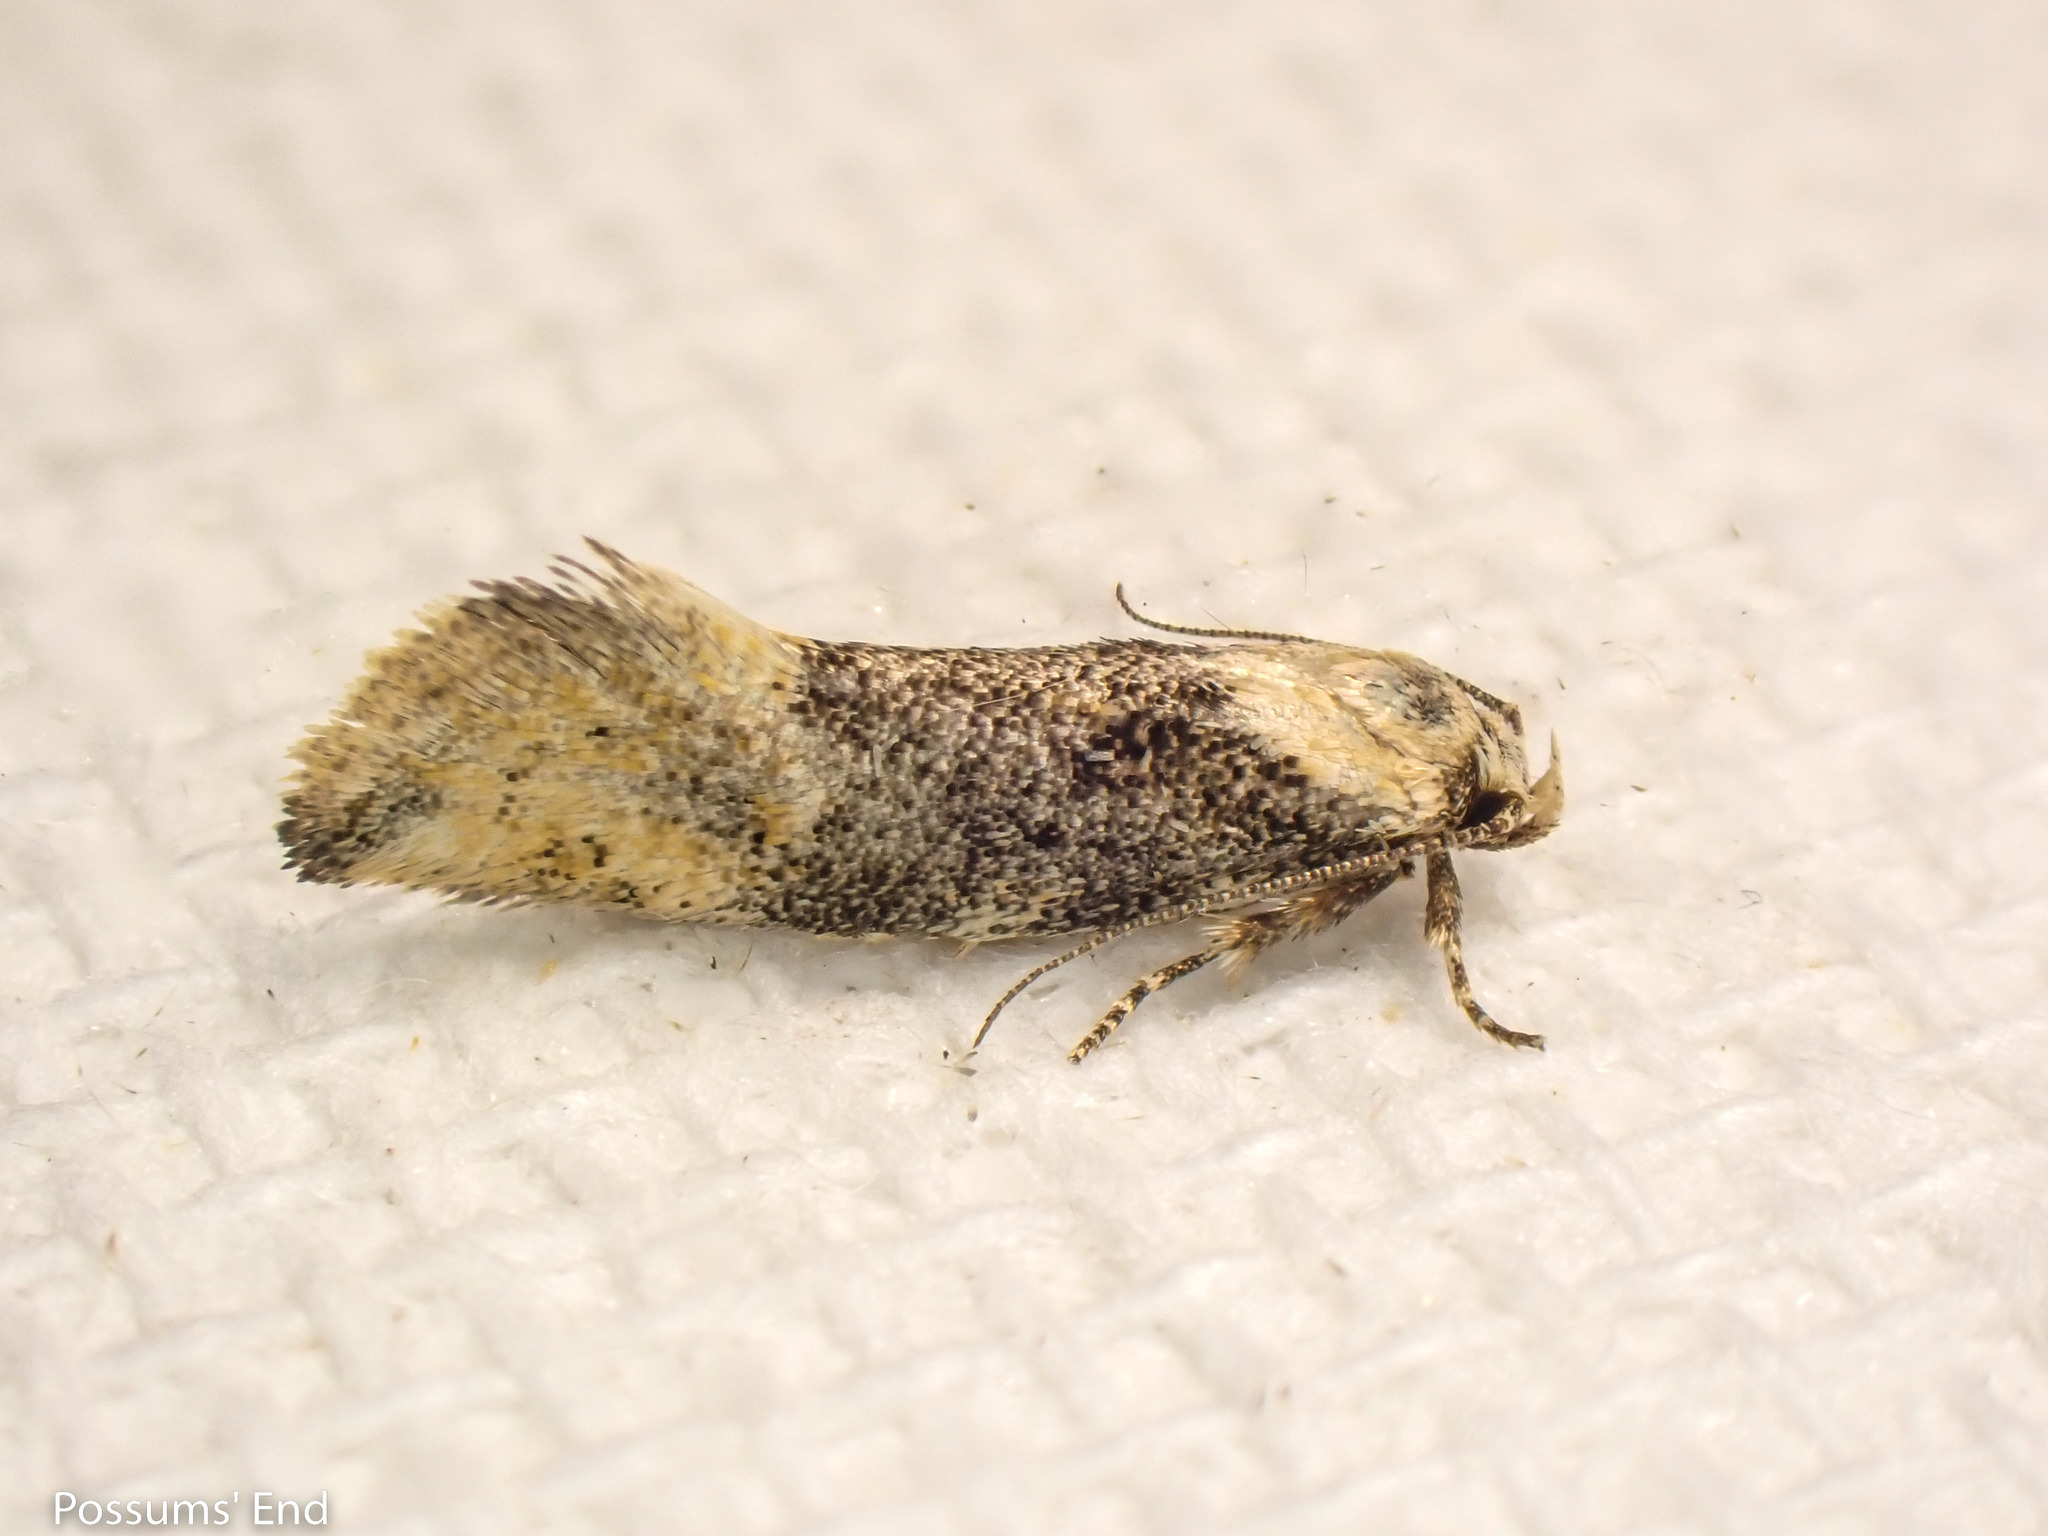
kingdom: Animalia
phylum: Arthropoda
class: Insecta
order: Lepidoptera
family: Oecophoridae
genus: Tingena
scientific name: Tingena
